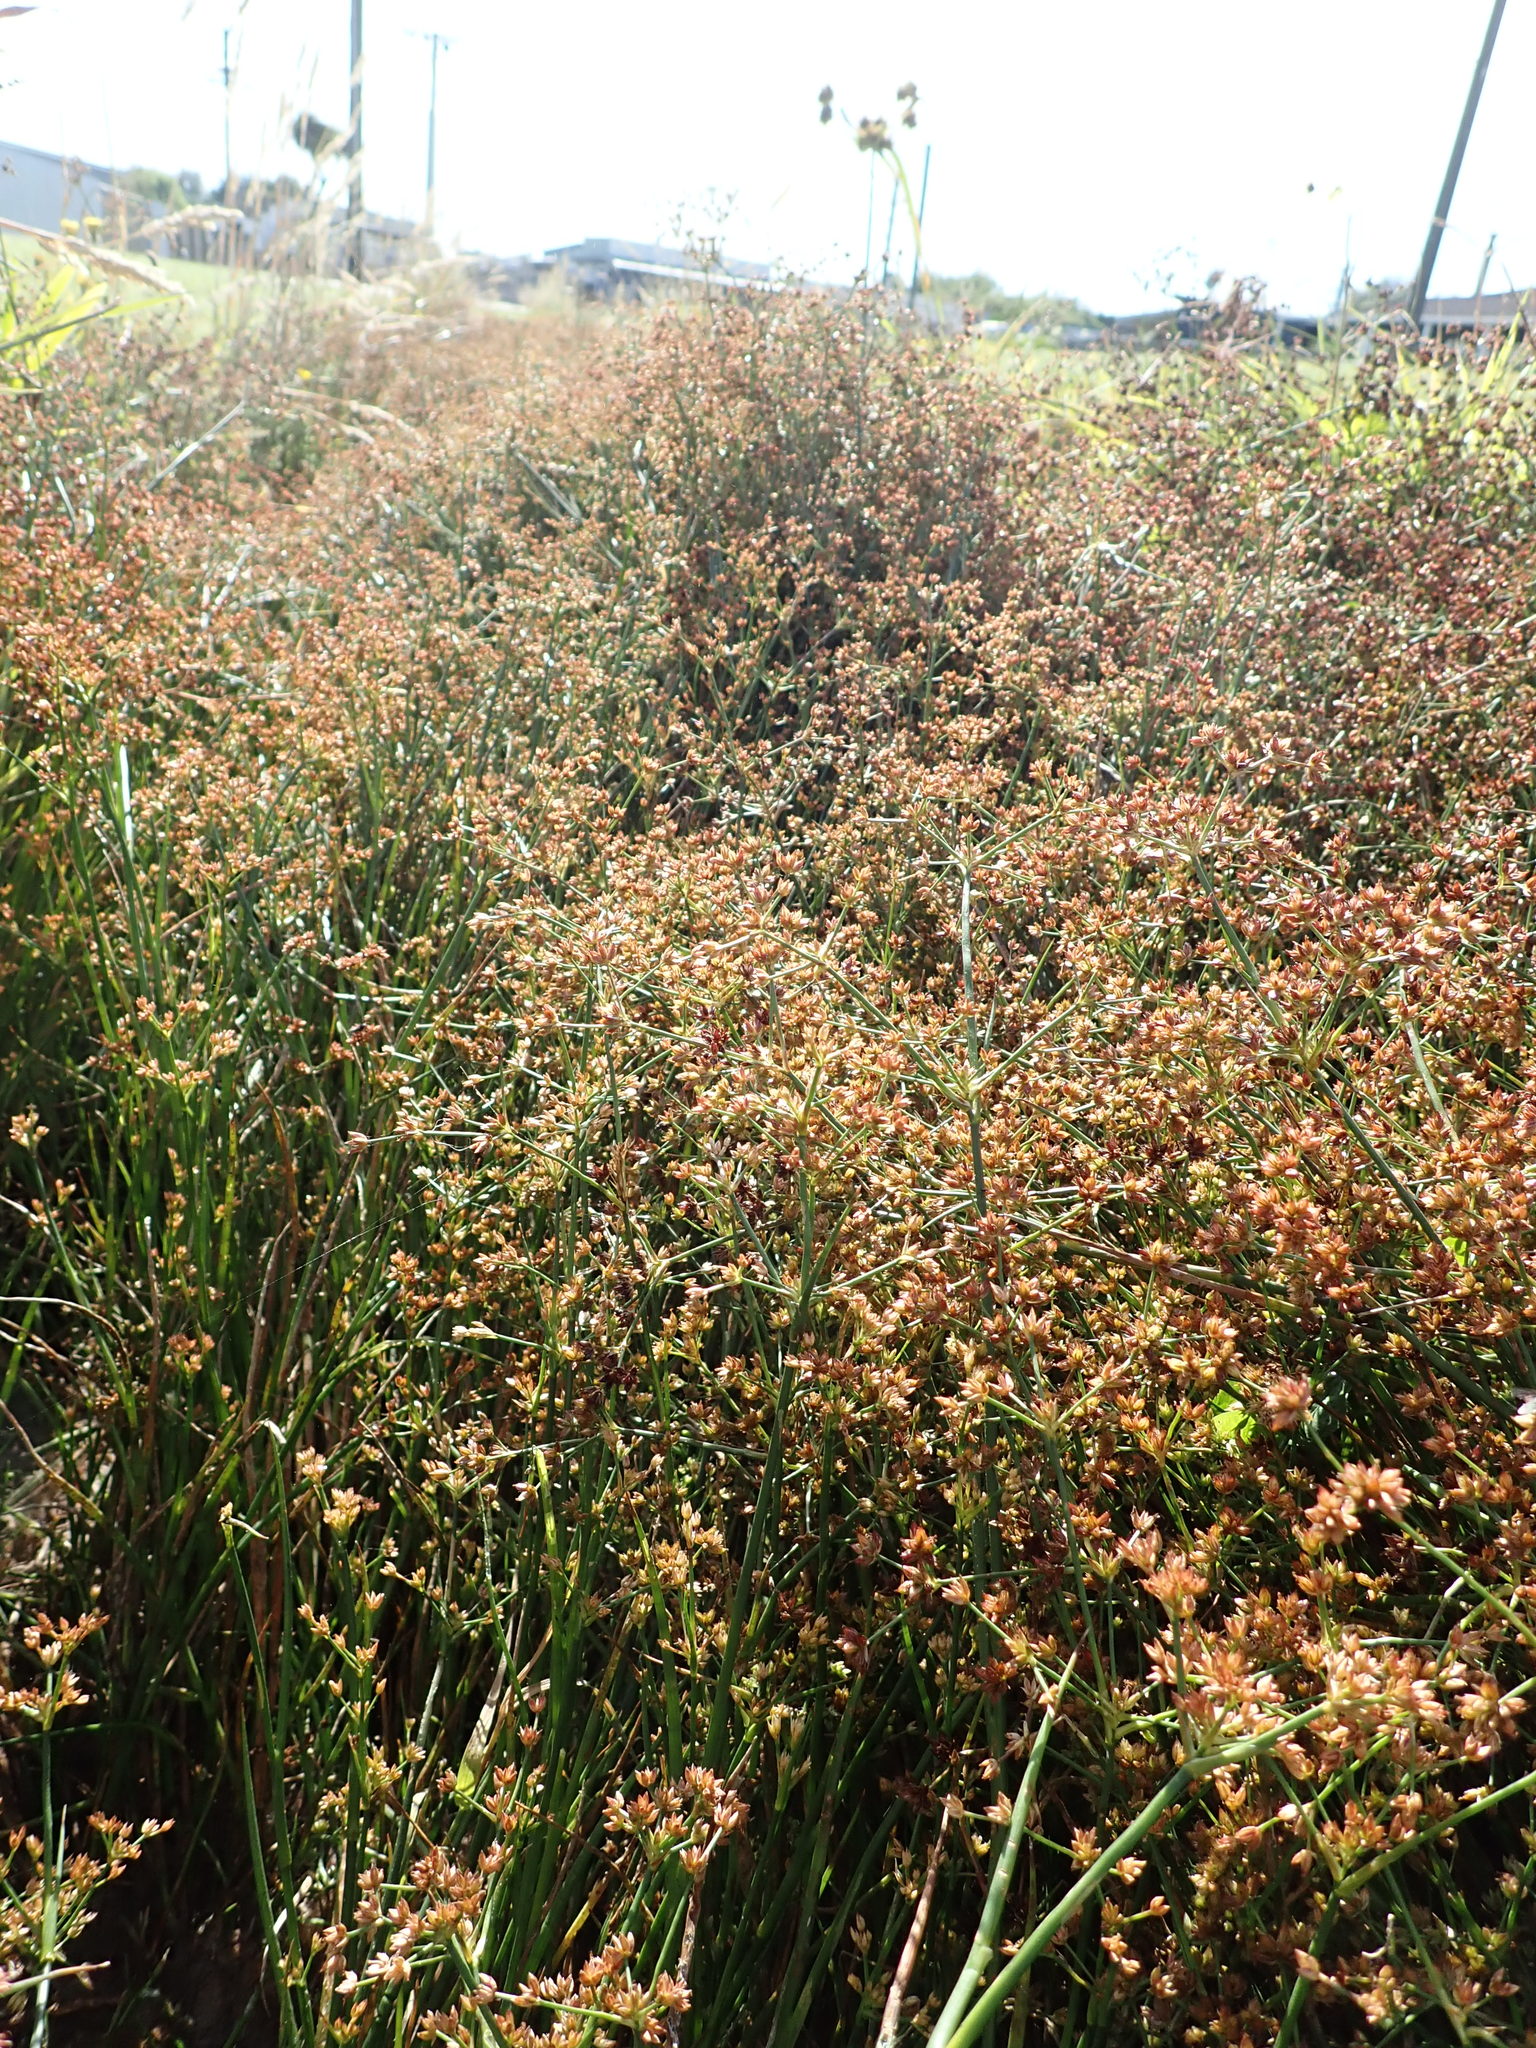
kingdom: Plantae
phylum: Tracheophyta
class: Liliopsida
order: Poales
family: Juncaceae
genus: Juncus
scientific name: Juncus articulatus
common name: Jointed rush
